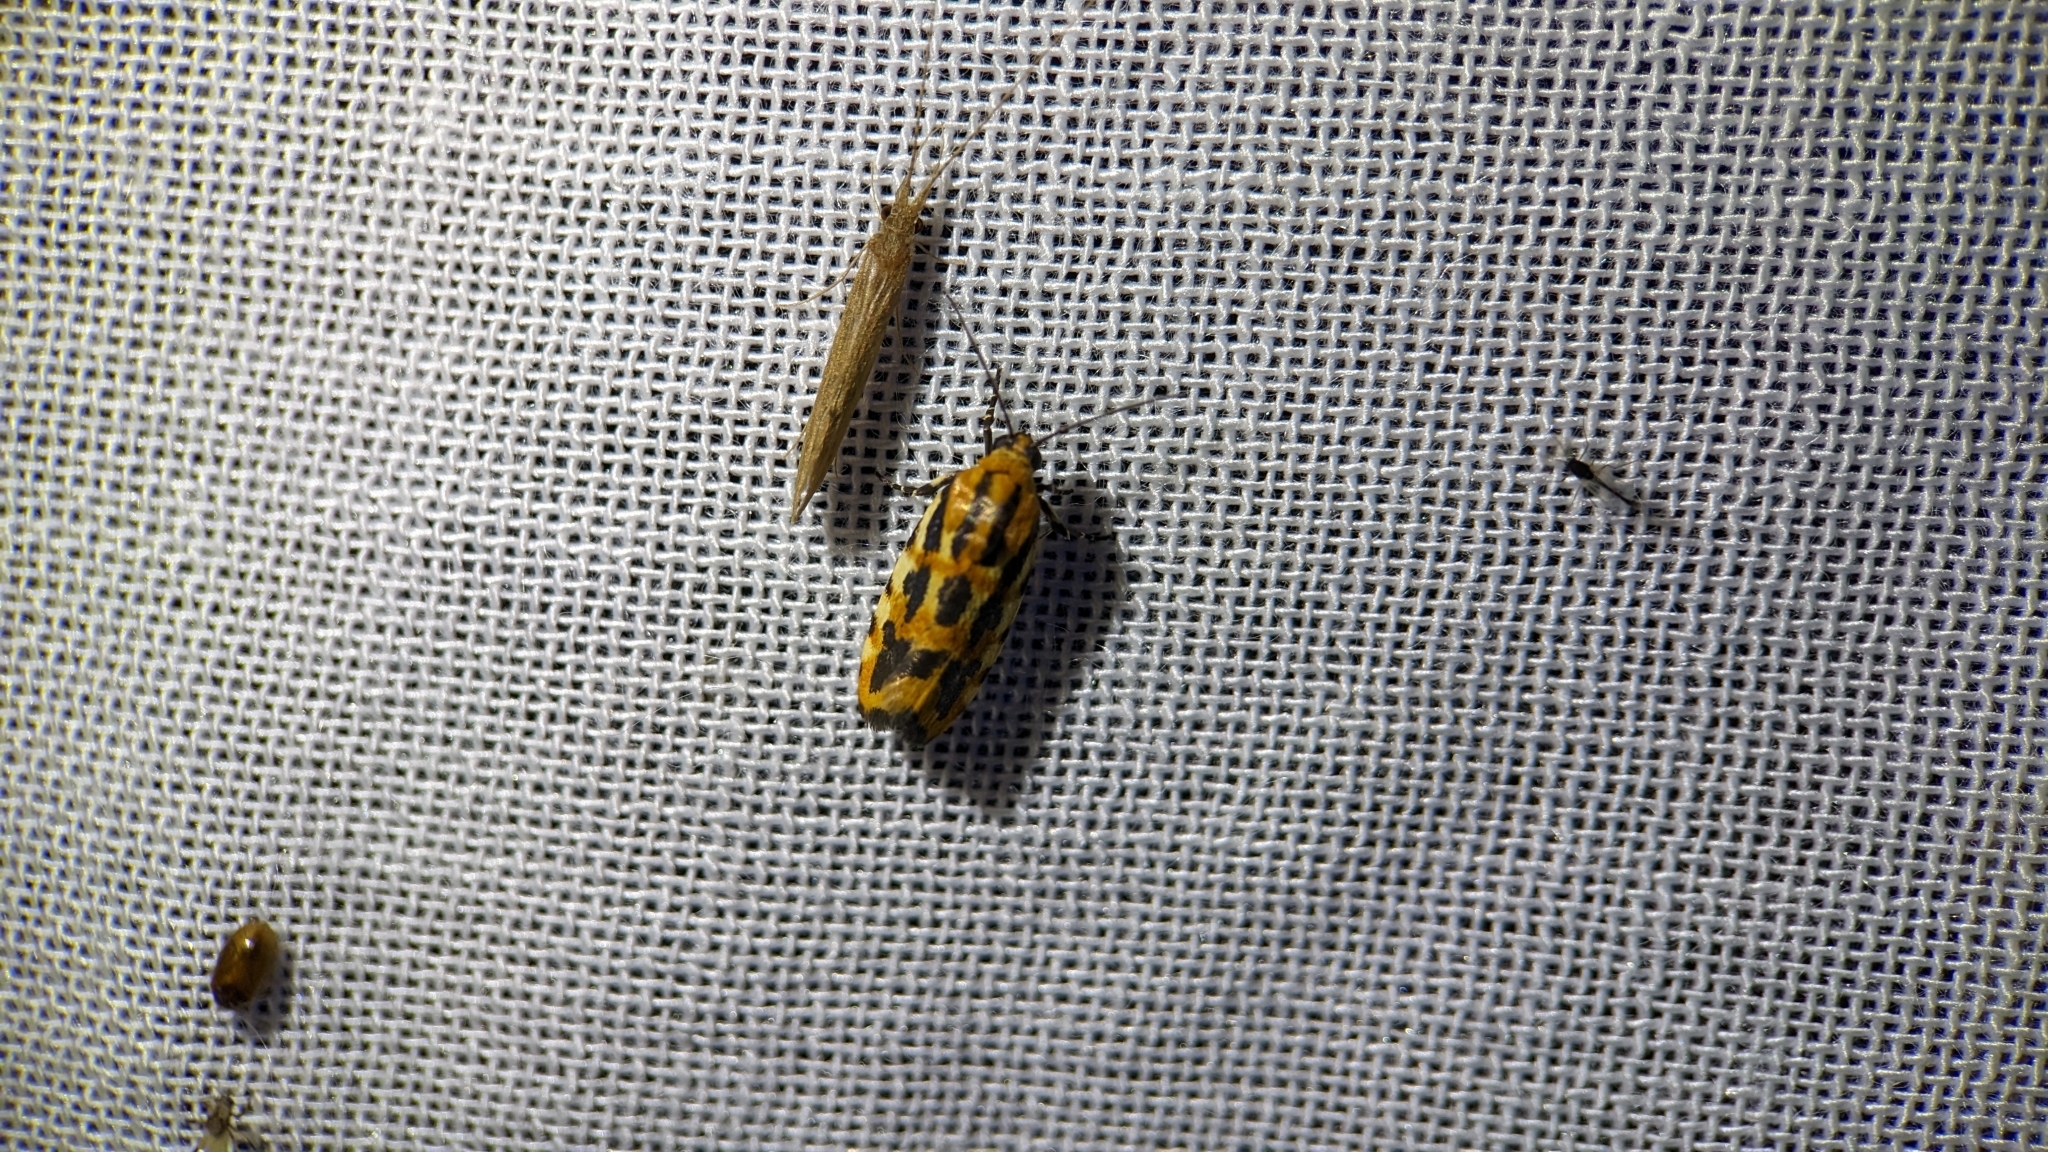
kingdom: Animalia
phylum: Arthropoda
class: Insecta
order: Lepidoptera
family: Noctuidae
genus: Acontia
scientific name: Acontia leo
